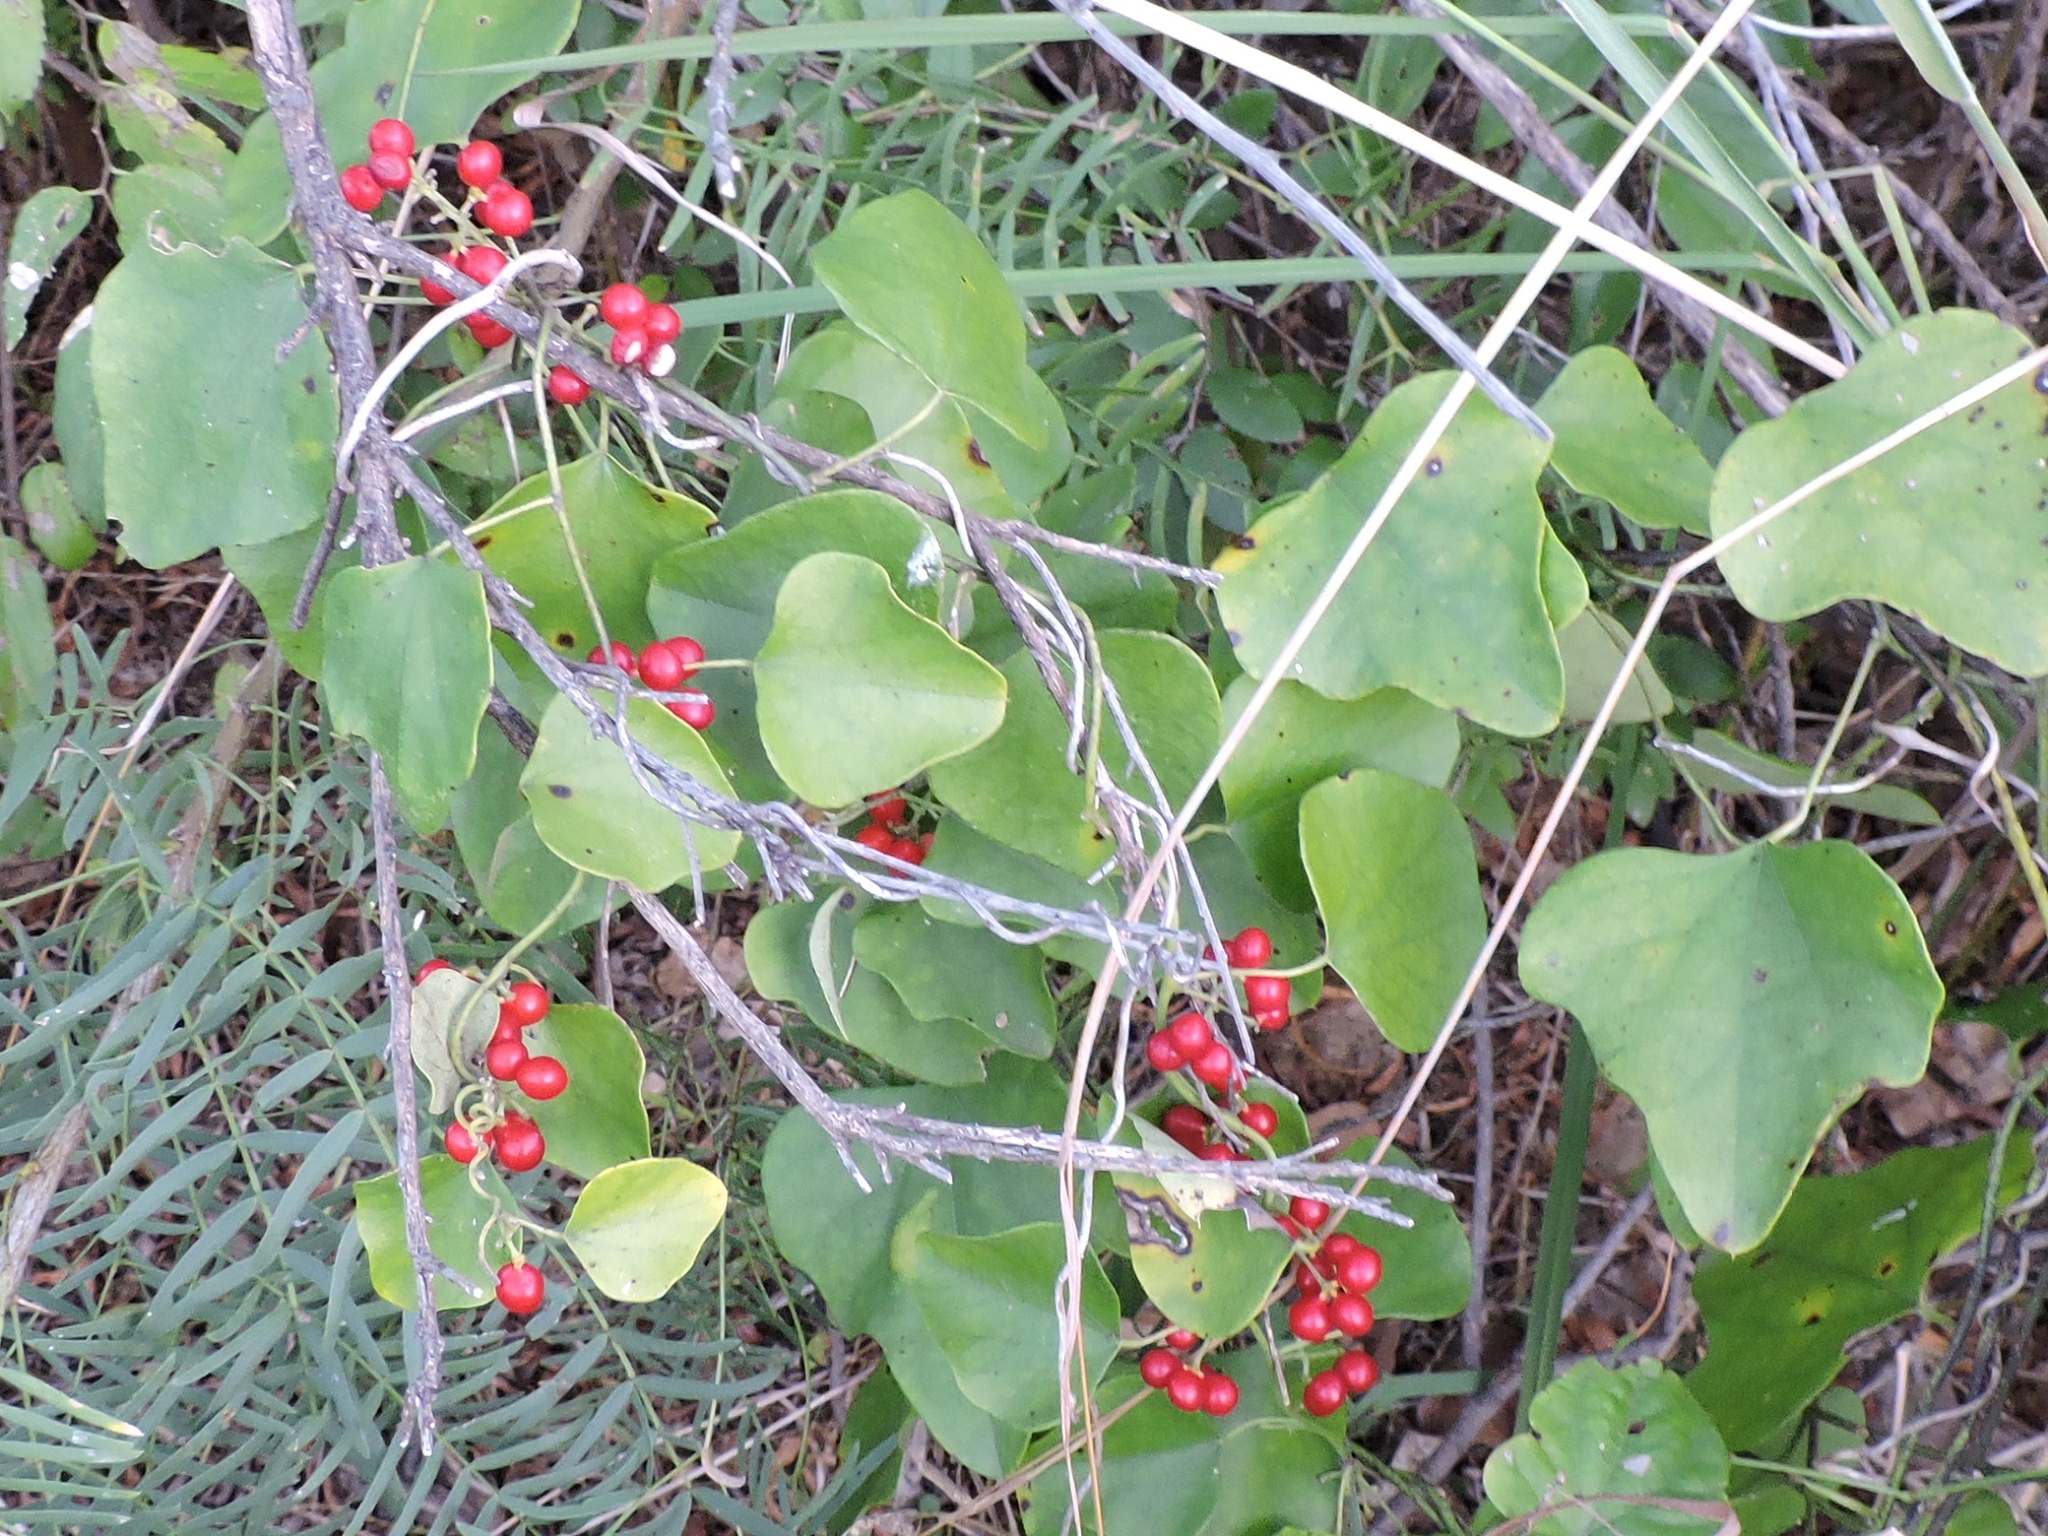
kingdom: Plantae
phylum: Tracheophyta
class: Magnoliopsida
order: Ranunculales
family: Menispermaceae
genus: Cocculus
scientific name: Cocculus carolinus
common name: Carolina moonseed
